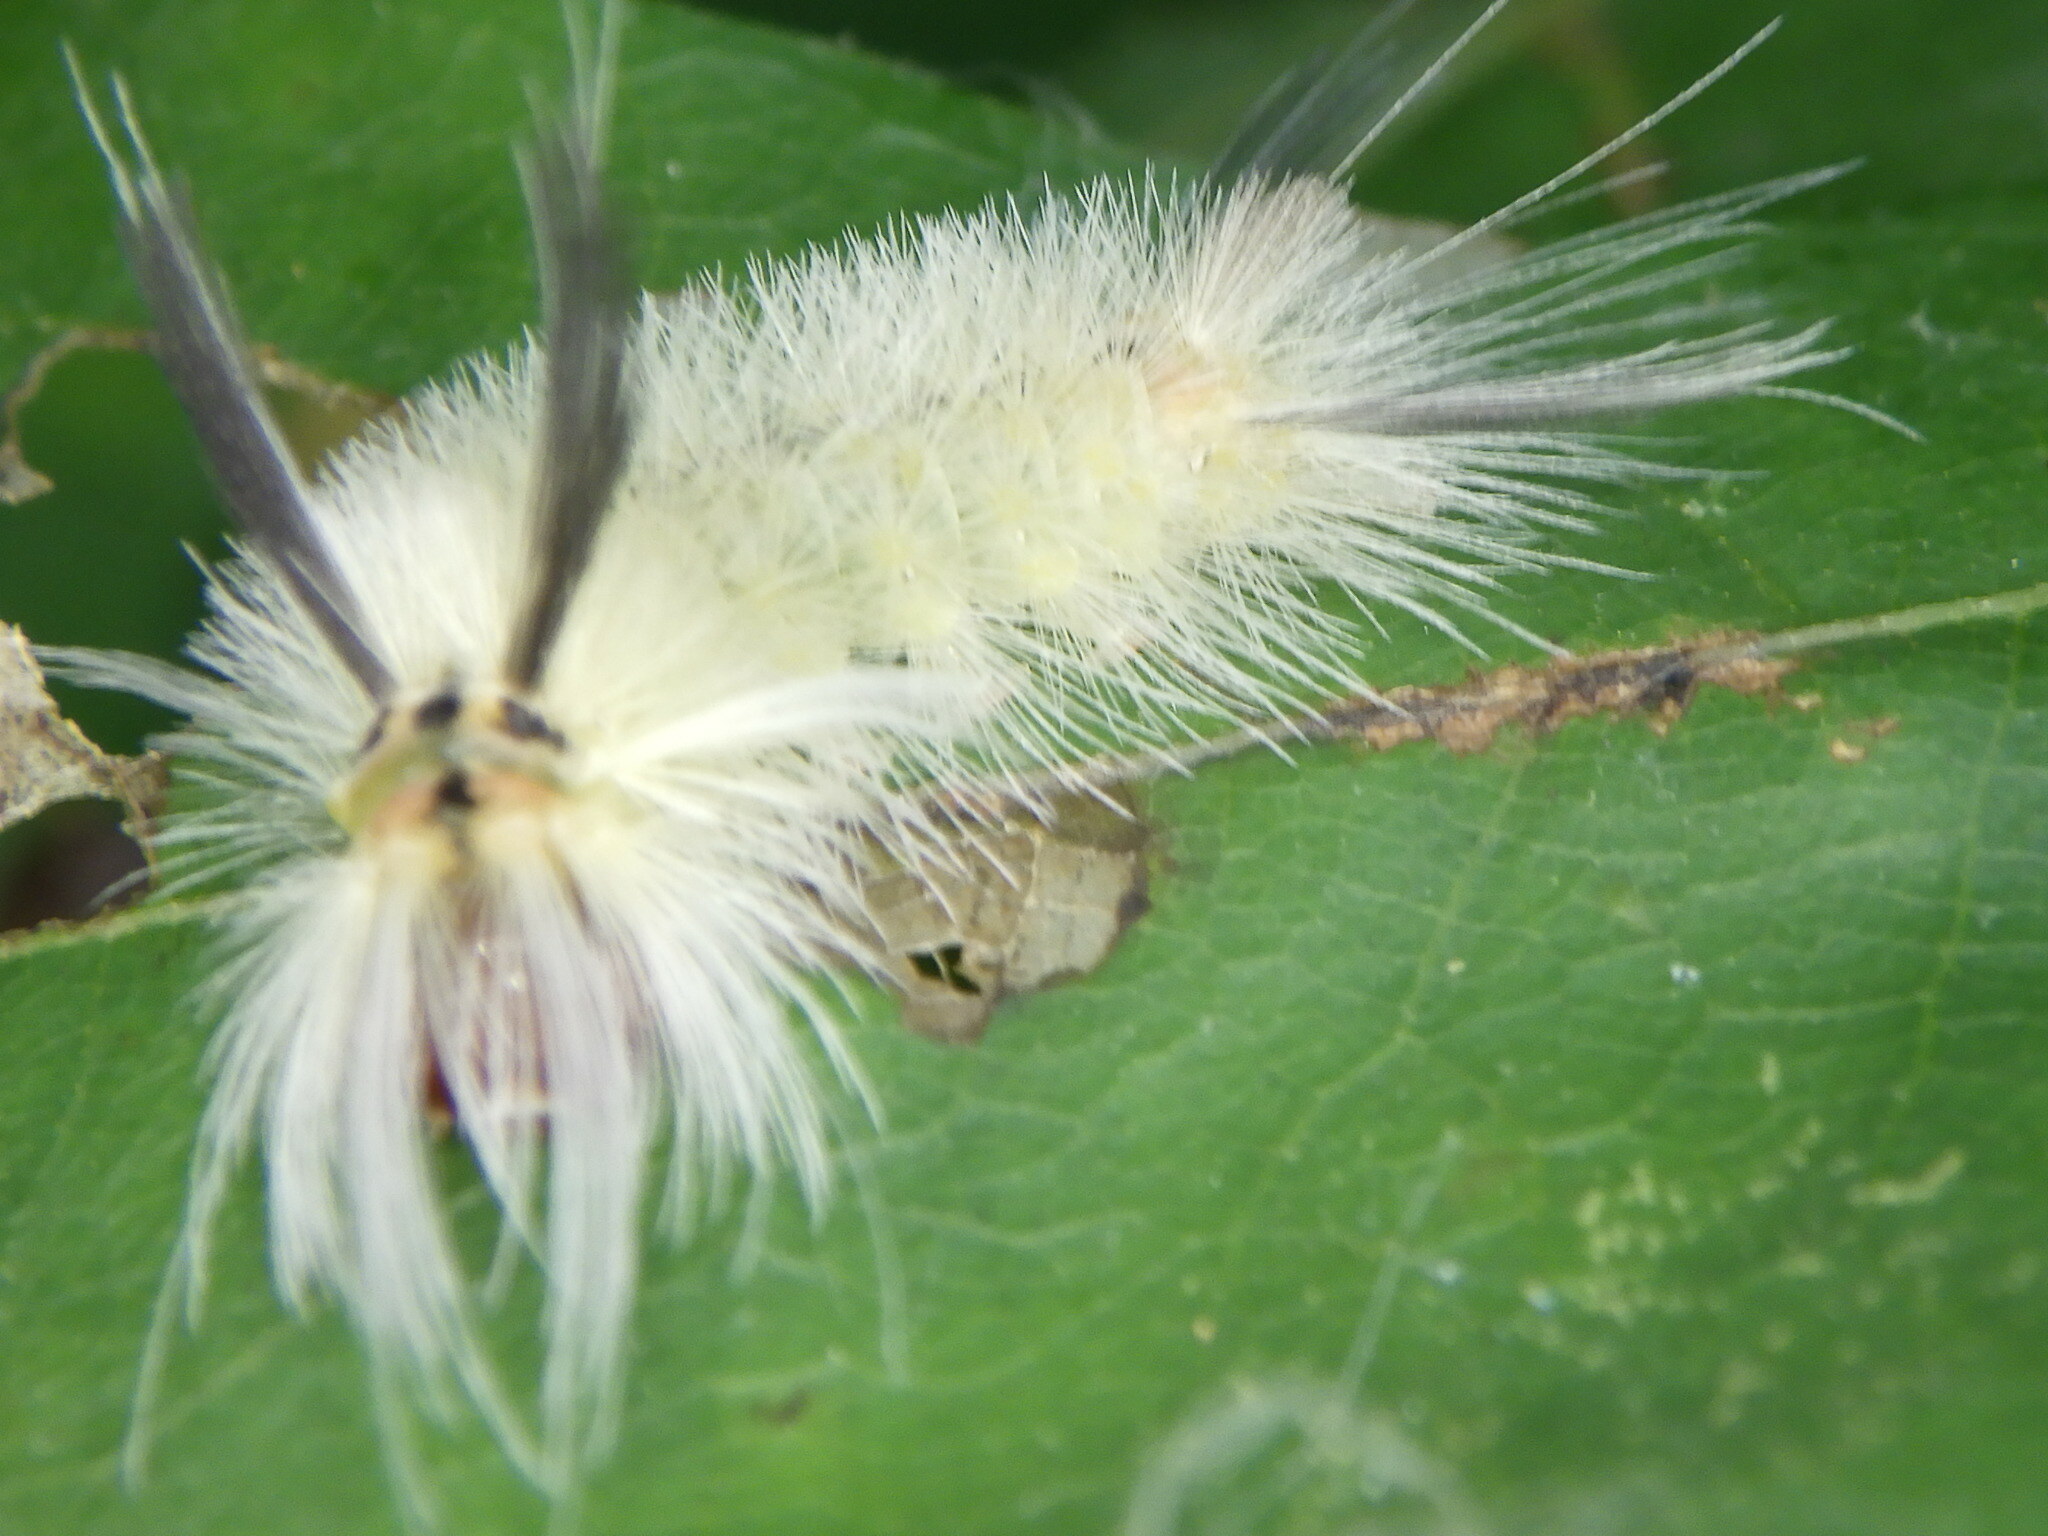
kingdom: Animalia
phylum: Arthropoda
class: Insecta
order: Lepidoptera
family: Erebidae
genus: Halysidota
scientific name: Halysidota tessellaris
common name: Banded tussock moth
